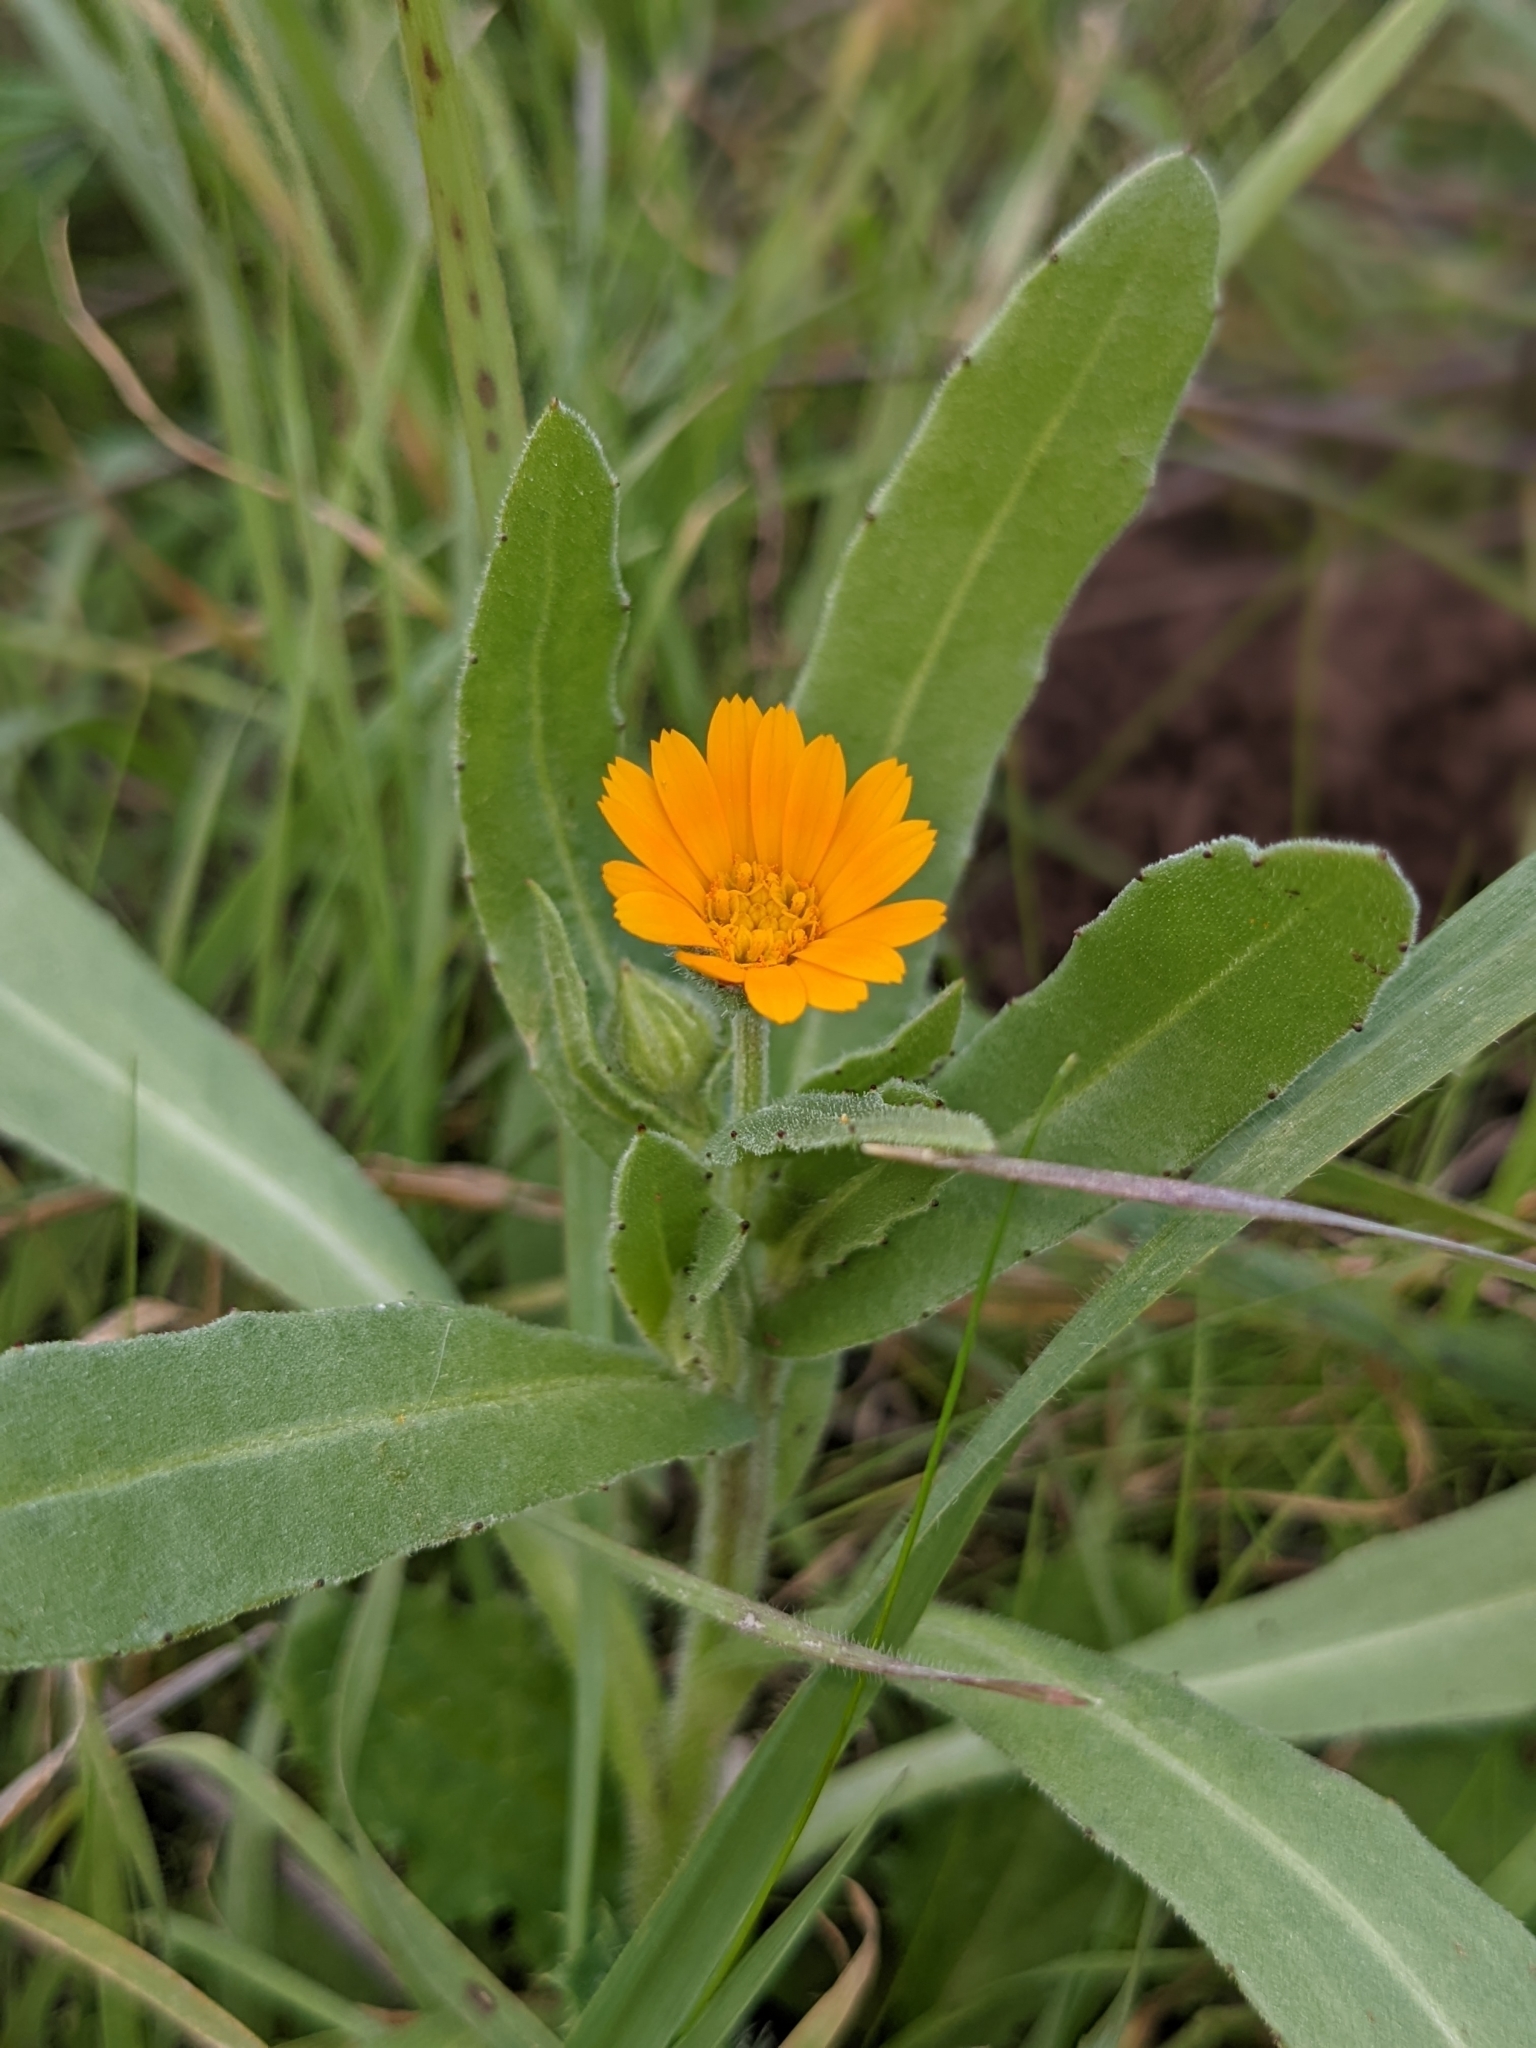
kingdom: Plantae
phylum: Tracheophyta
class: Magnoliopsida
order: Asterales
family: Asteraceae
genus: Calendula
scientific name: Calendula arvensis
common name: Field marigold
